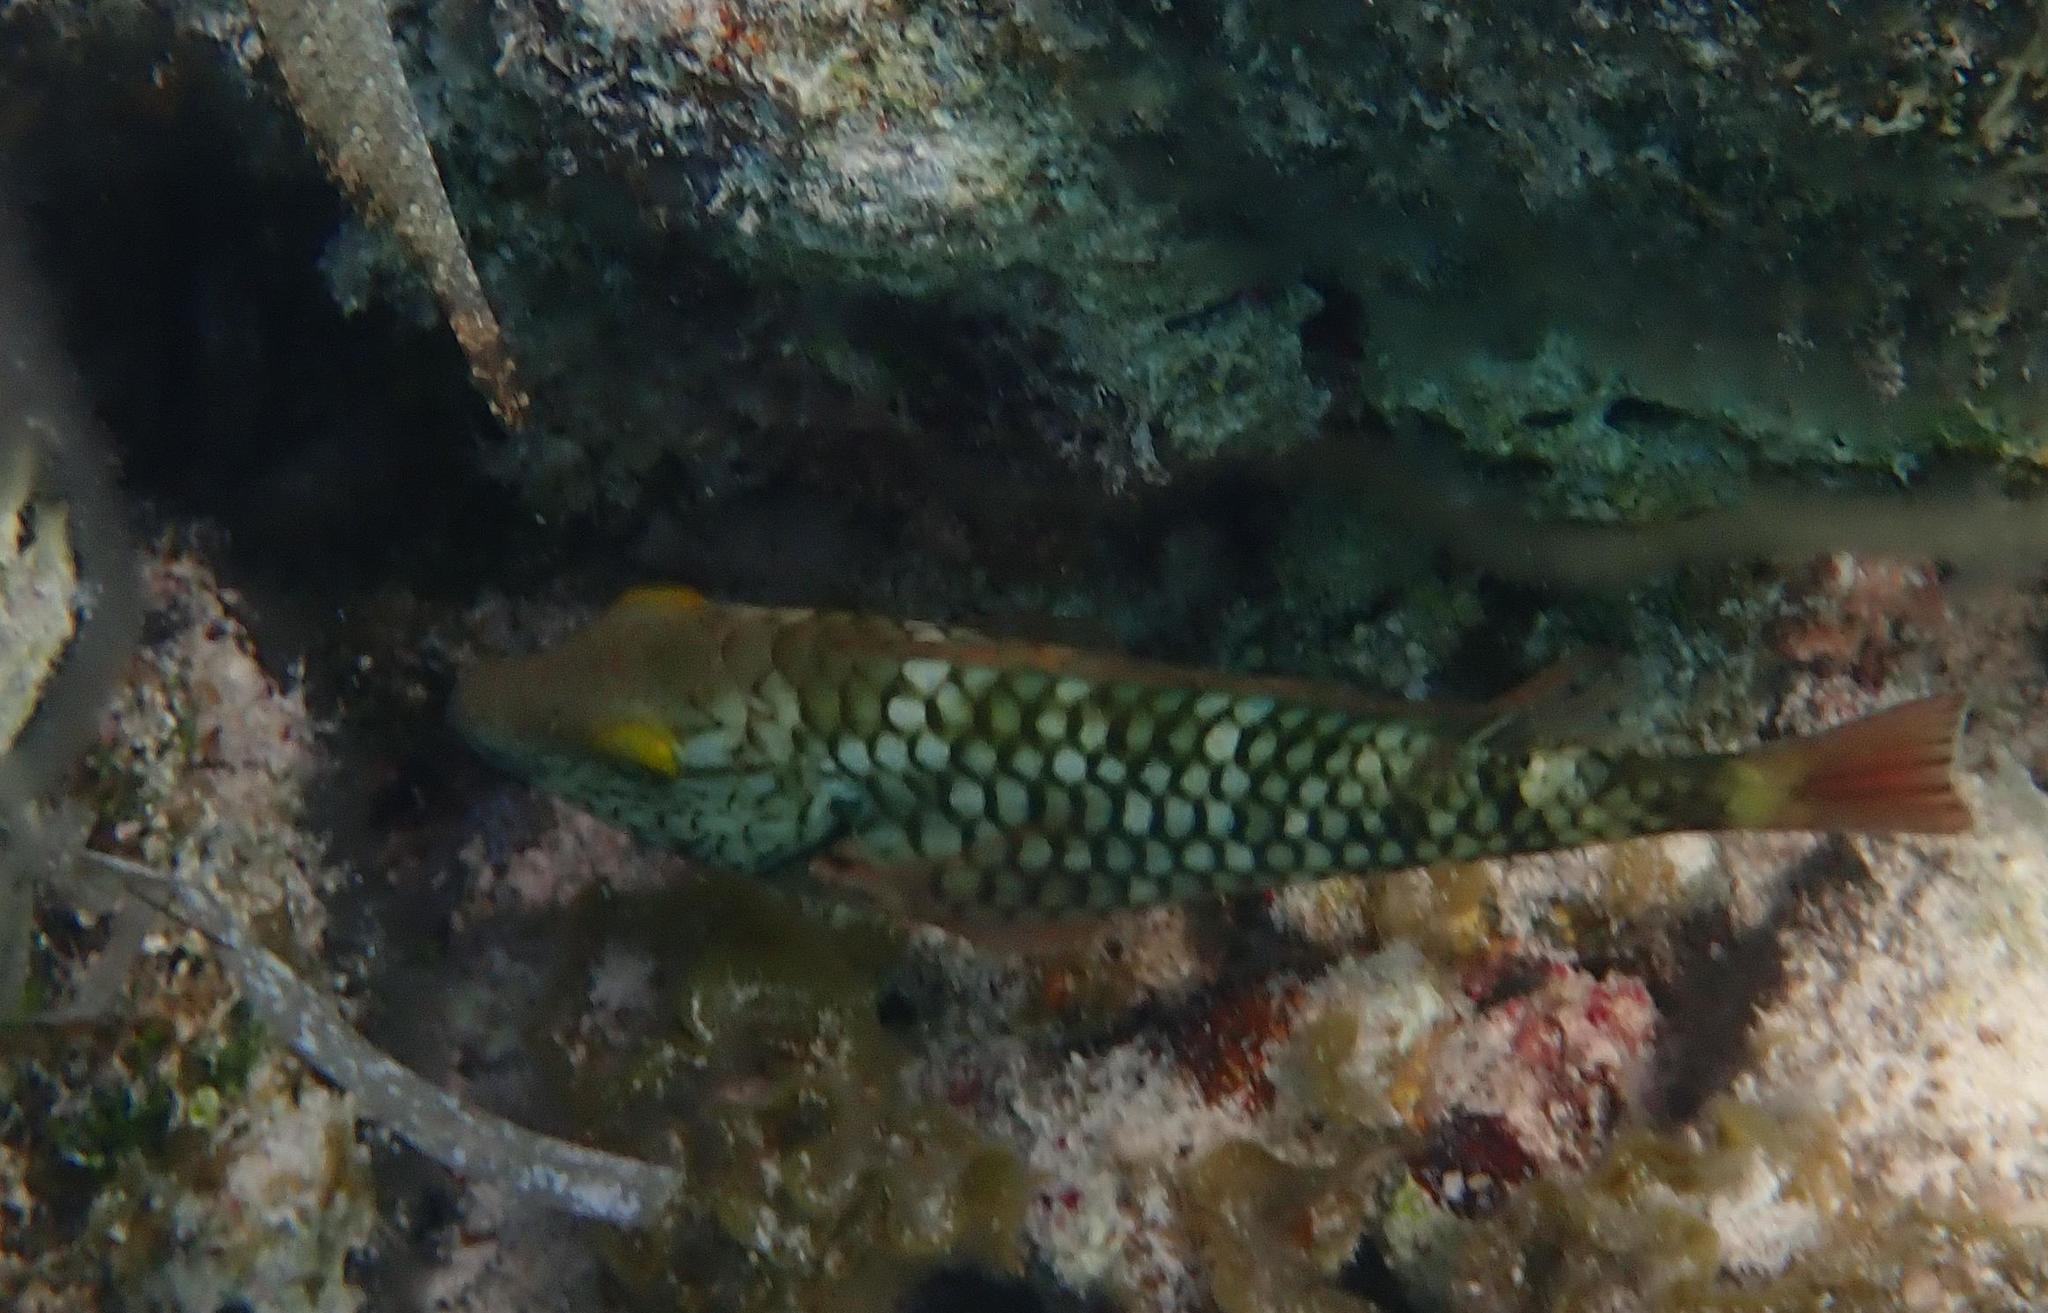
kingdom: Animalia
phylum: Chordata
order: Perciformes
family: Scaridae
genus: Sparisoma
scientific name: Sparisoma viride
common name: Stoplight parrotfish
